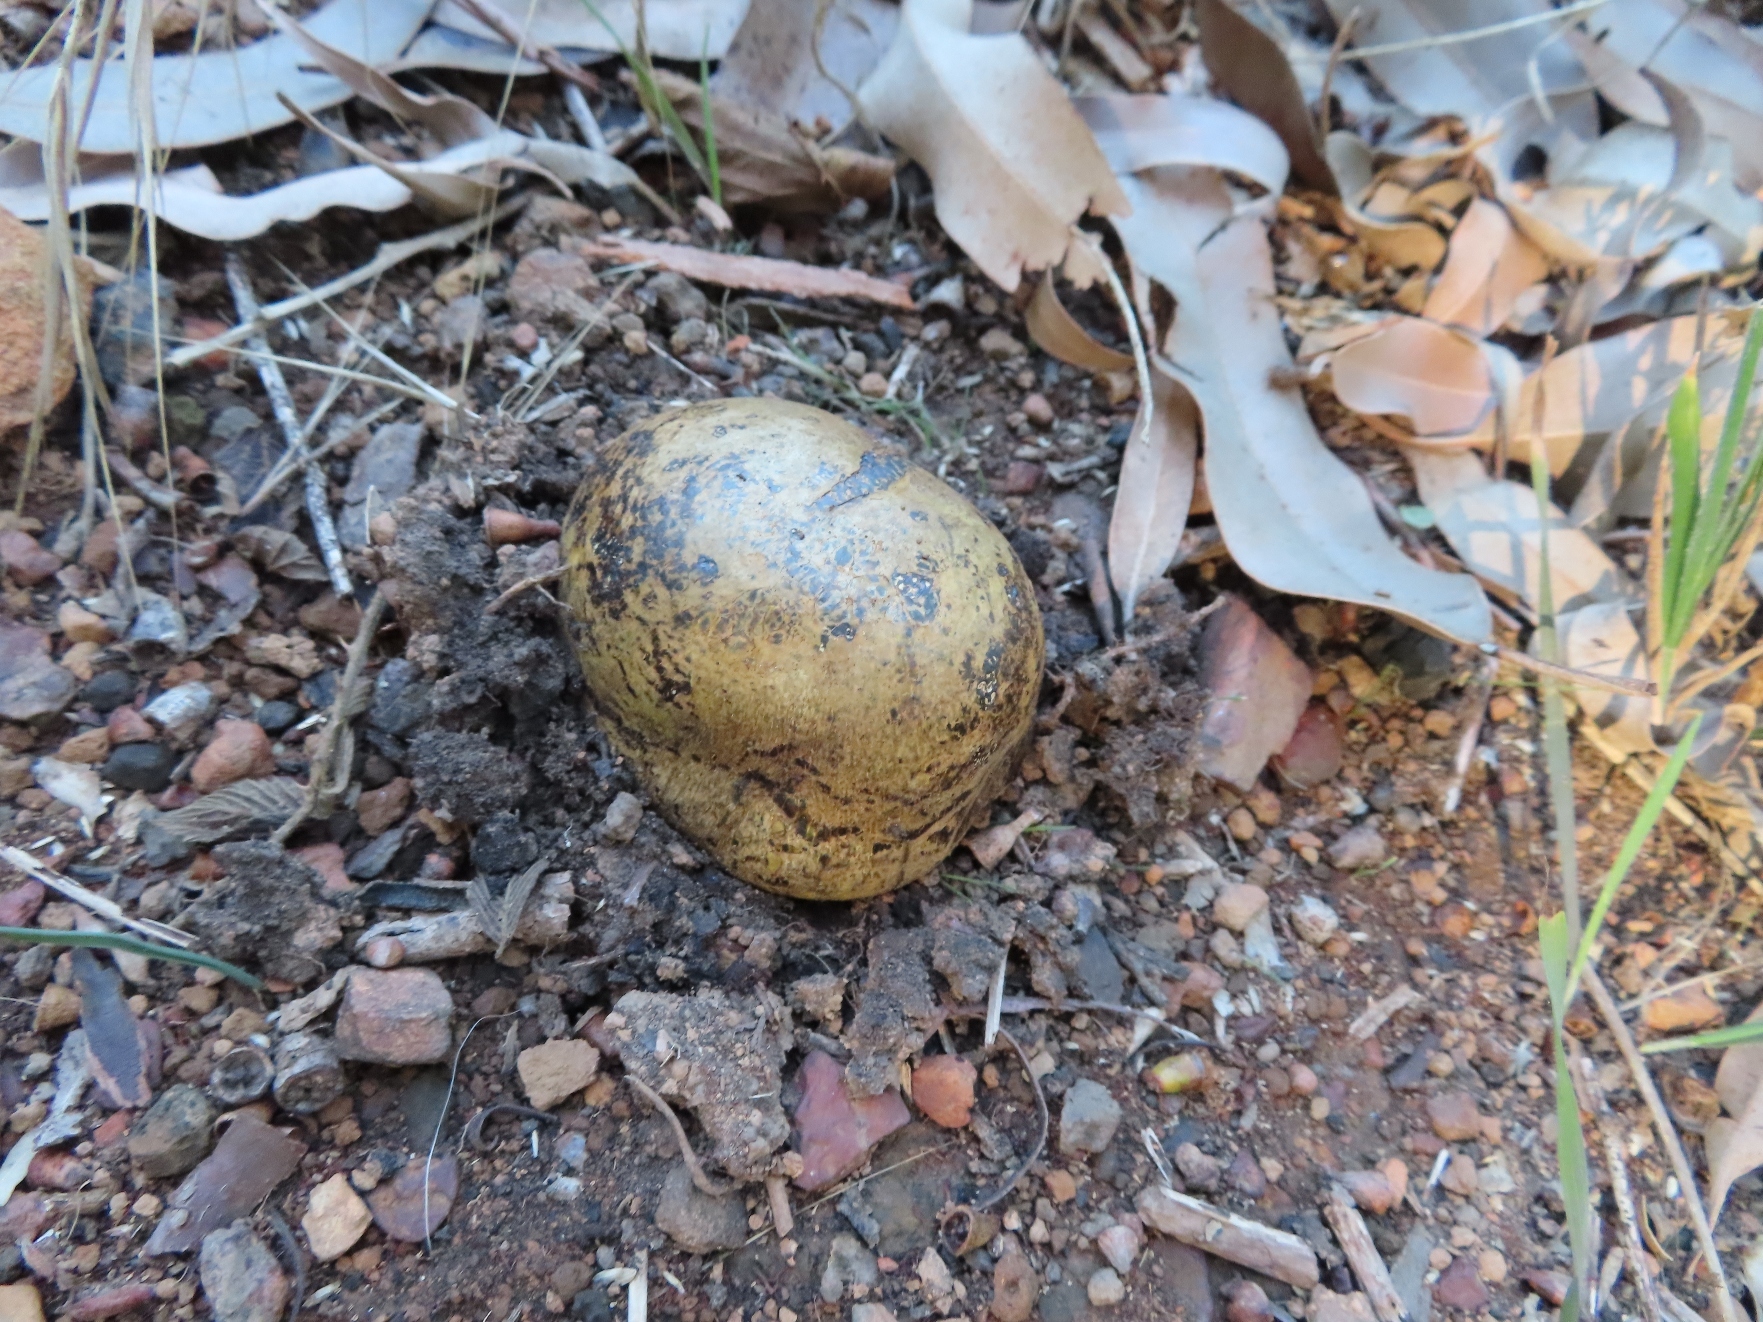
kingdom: Fungi
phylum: Basidiomycota
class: Agaricomycetes
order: Boletales
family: Sclerodermataceae
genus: Pisolithus
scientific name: Pisolithus arhizus
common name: Dyeball
